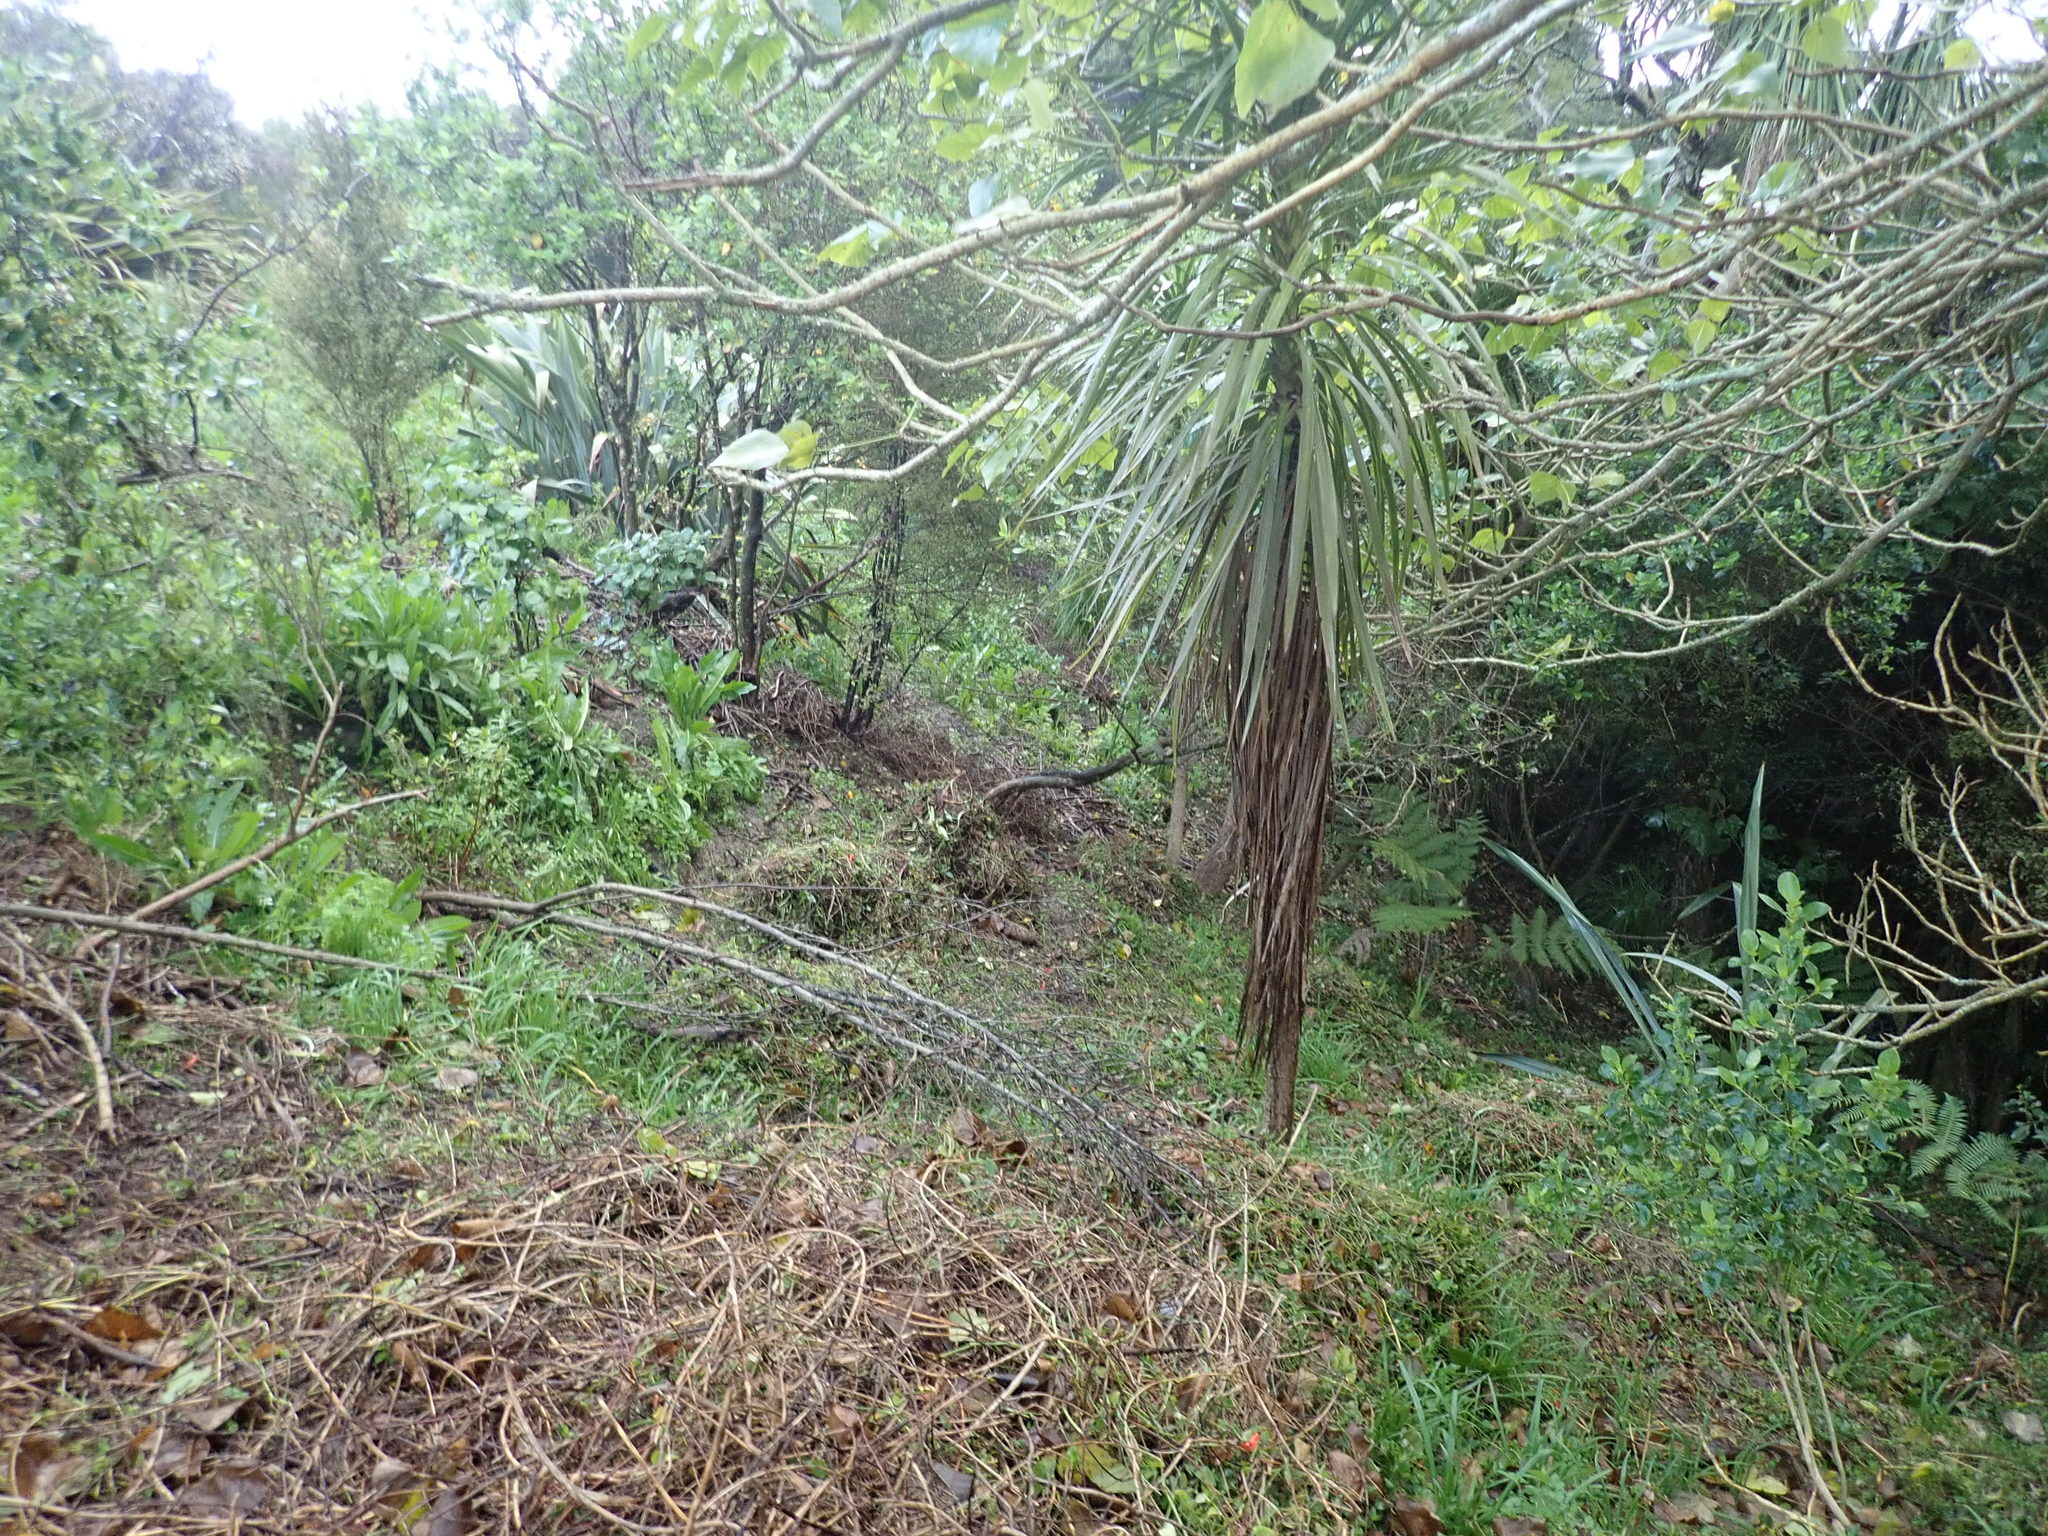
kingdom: Plantae
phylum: Tracheophyta
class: Liliopsida
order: Asparagales
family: Asparagaceae
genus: Cordyline
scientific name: Cordyline australis
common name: Cabbage-palm
